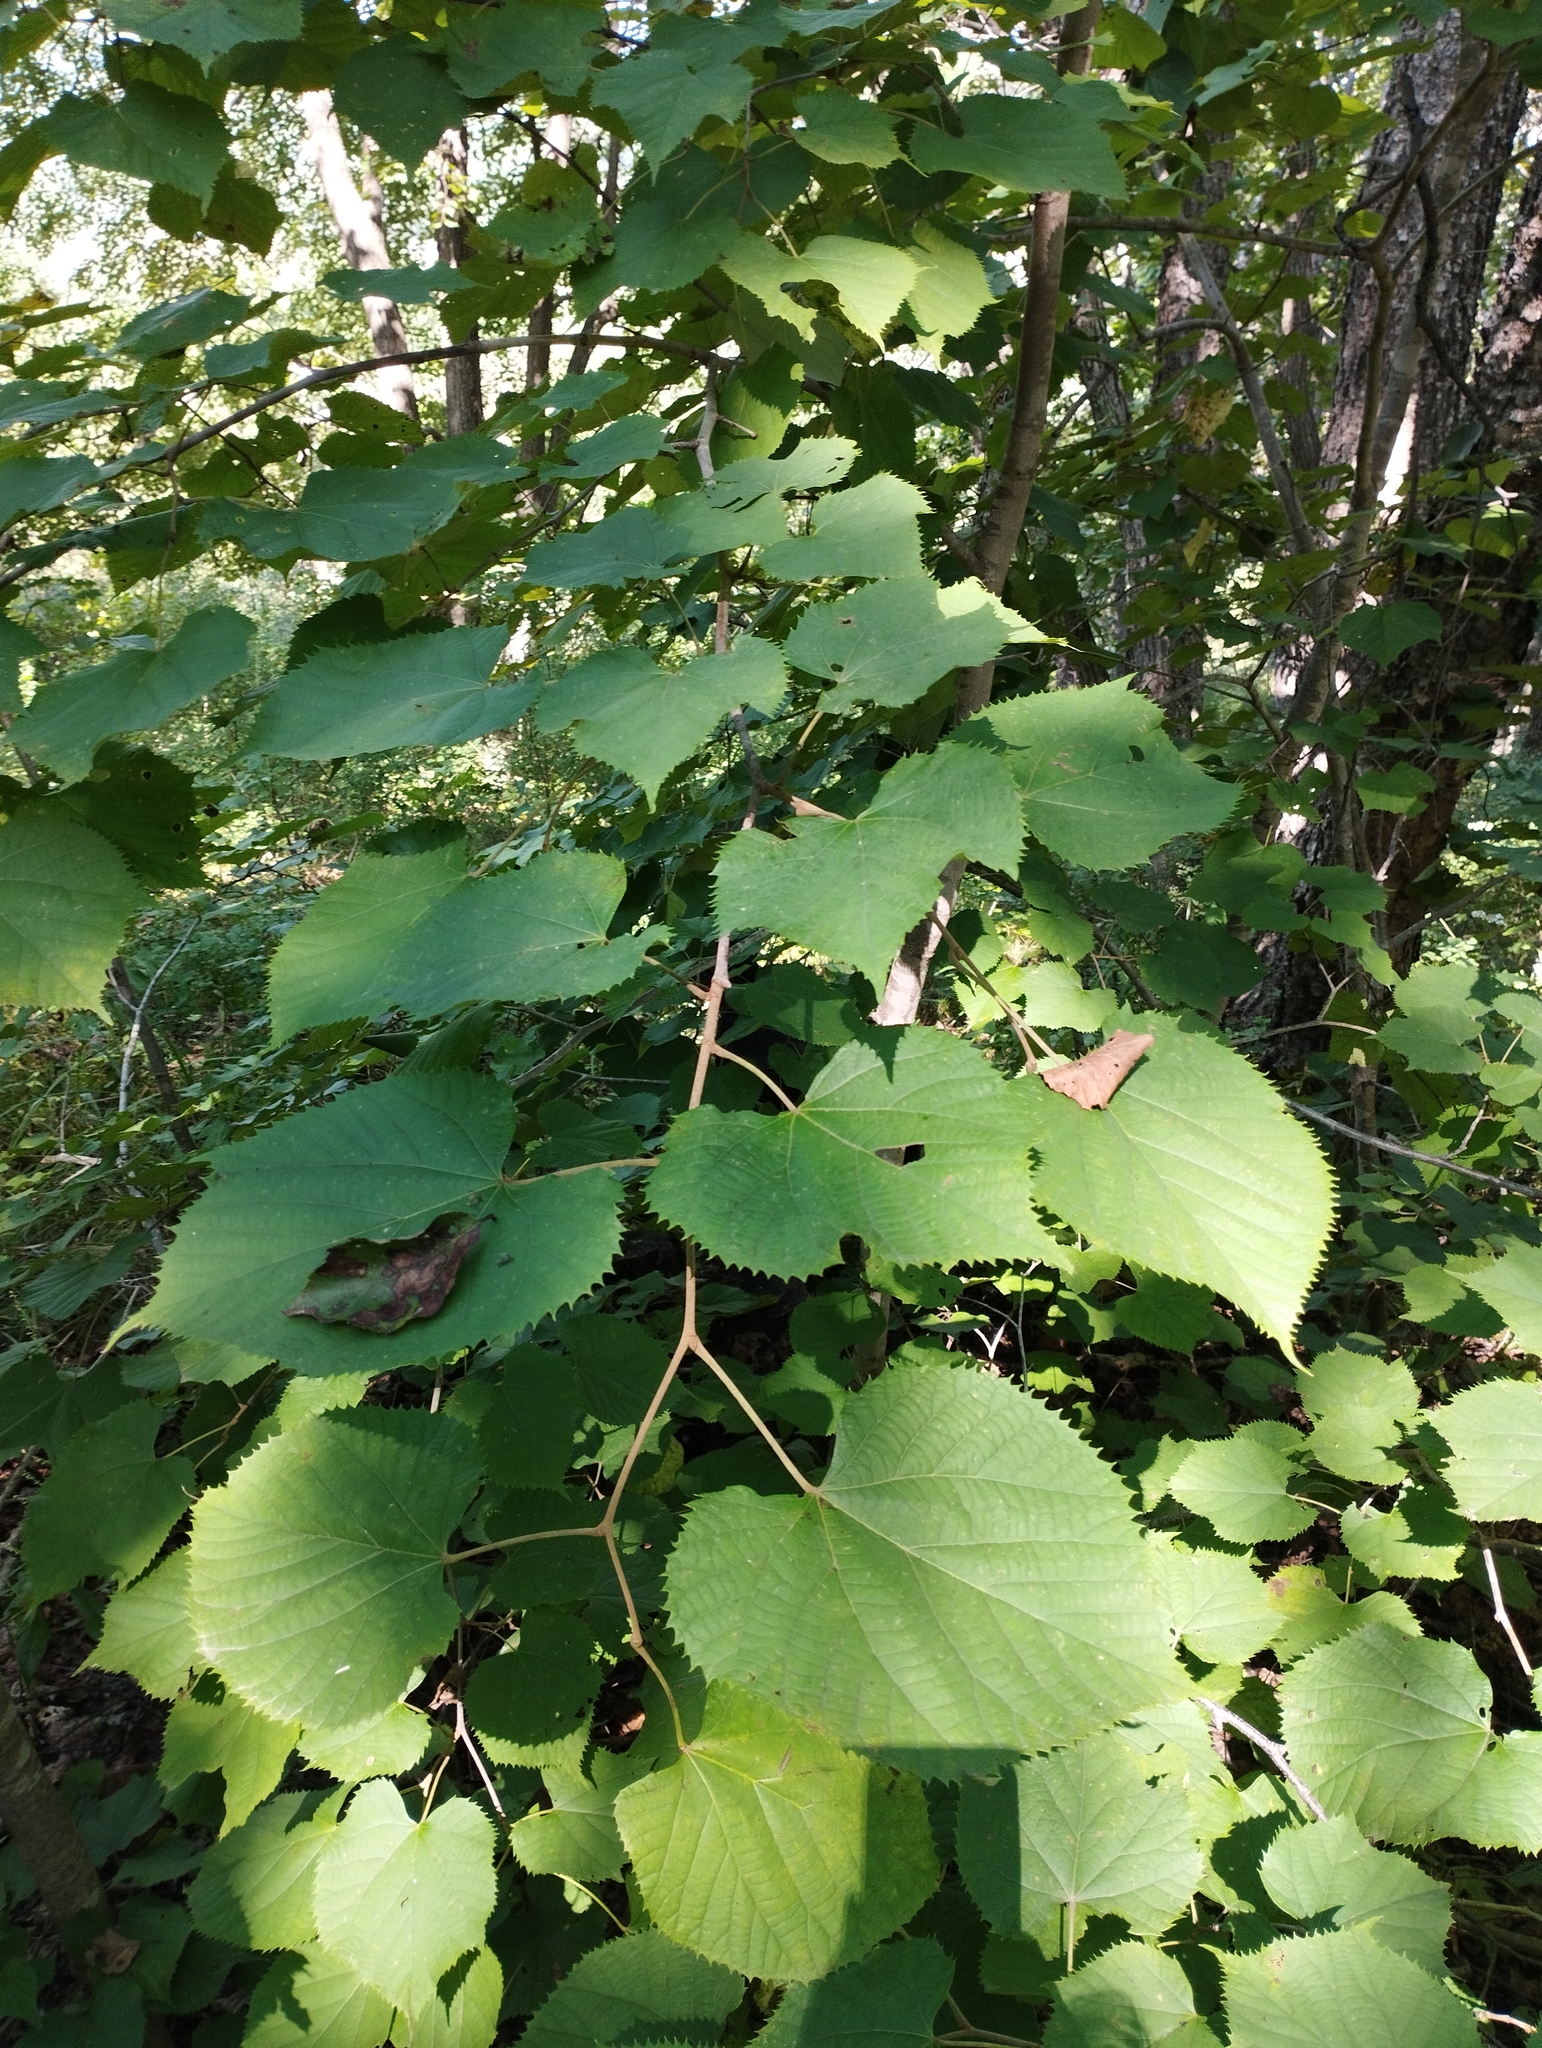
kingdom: Plantae
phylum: Tracheophyta
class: Magnoliopsida
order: Malvales
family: Malvaceae
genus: Tilia
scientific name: Tilia mandshurica
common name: Manchurian linden
